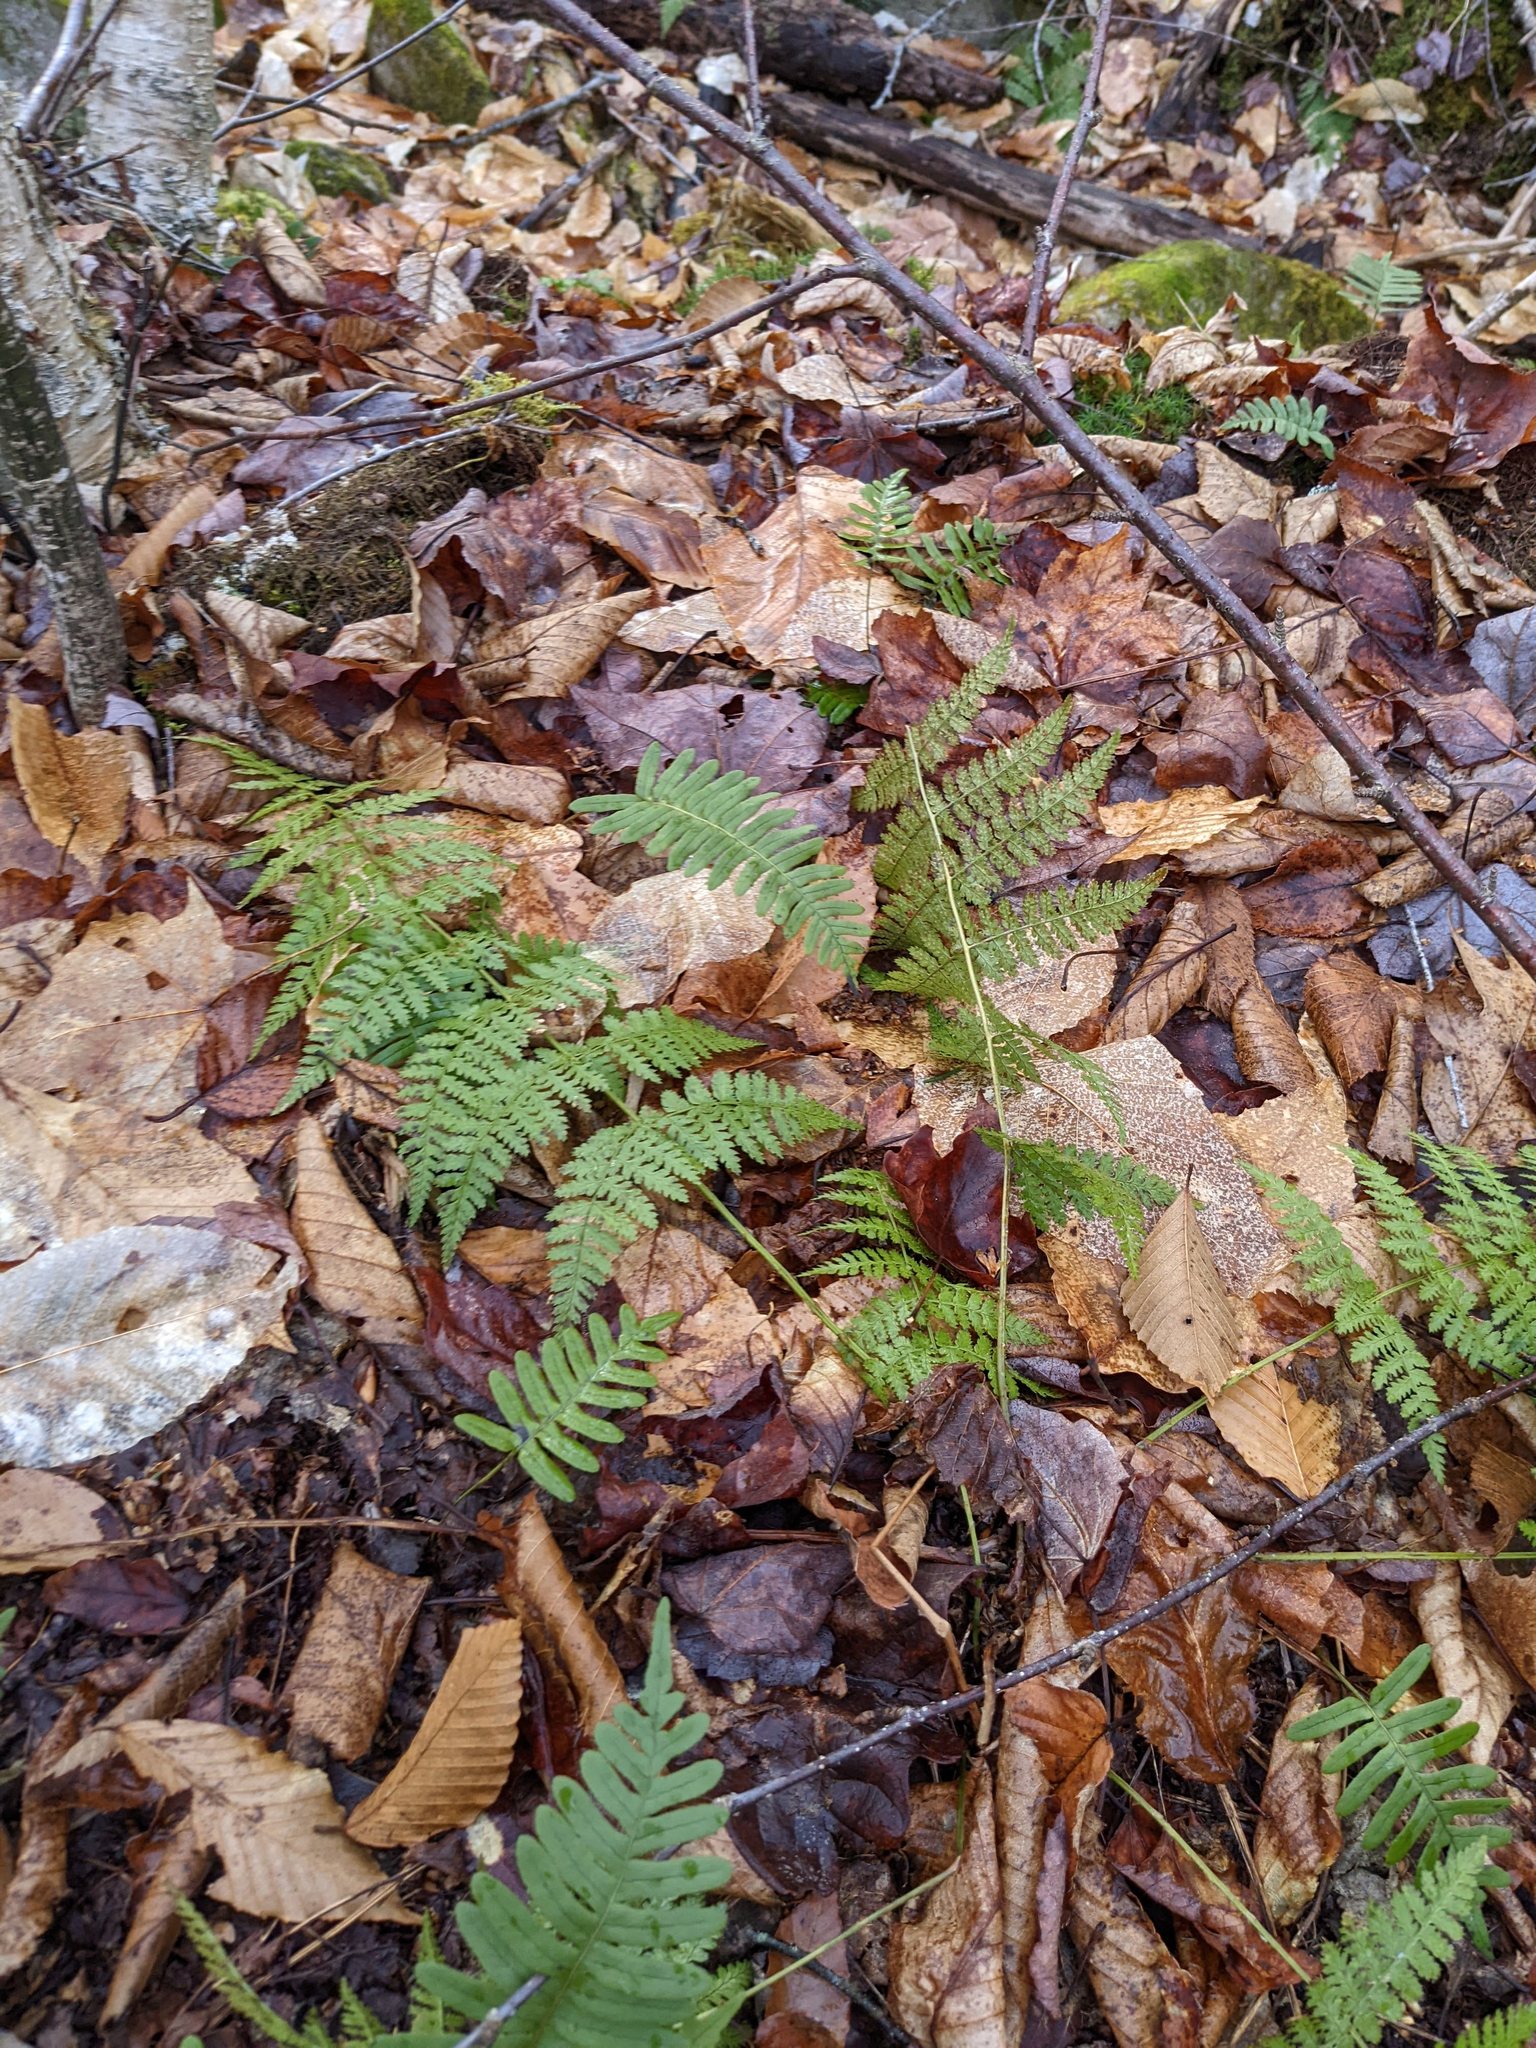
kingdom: Plantae
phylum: Tracheophyta
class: Polypodiopsida
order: Polypodiales
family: Dryopteridaceae
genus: Dryopteris
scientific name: Dryopteris intermedia
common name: Evergreen wood fern
